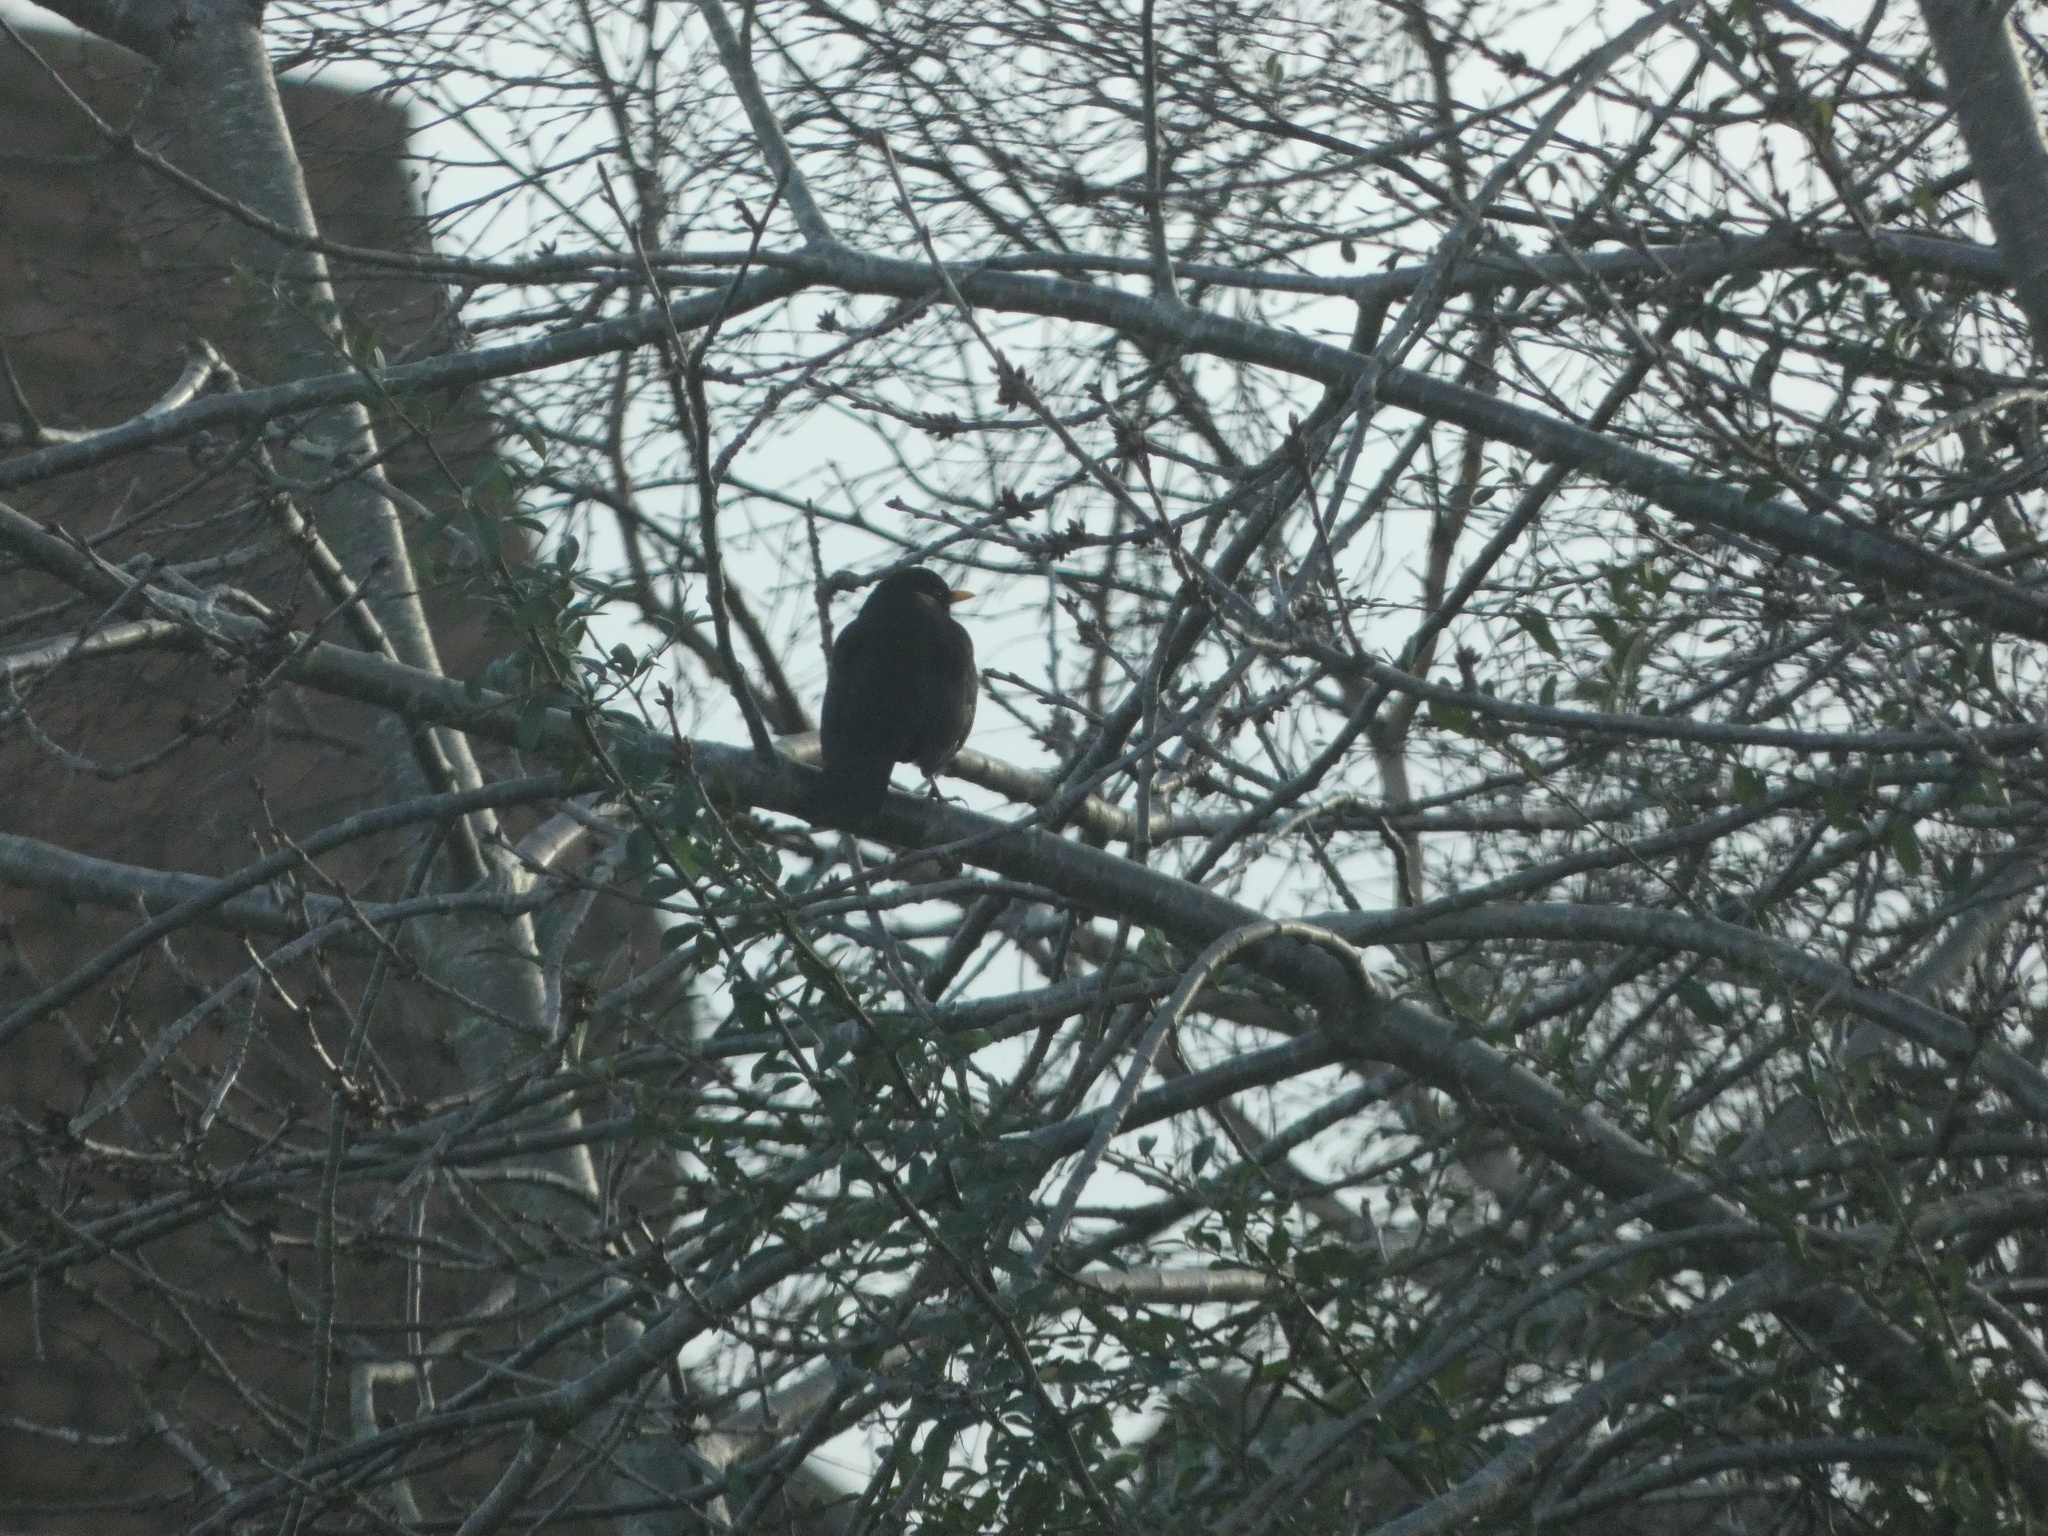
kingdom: Animalia
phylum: Chordata
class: Aves
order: Passeriformes
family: Turdidae
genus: Turdus
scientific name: Turdus merula
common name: Common blackbird
